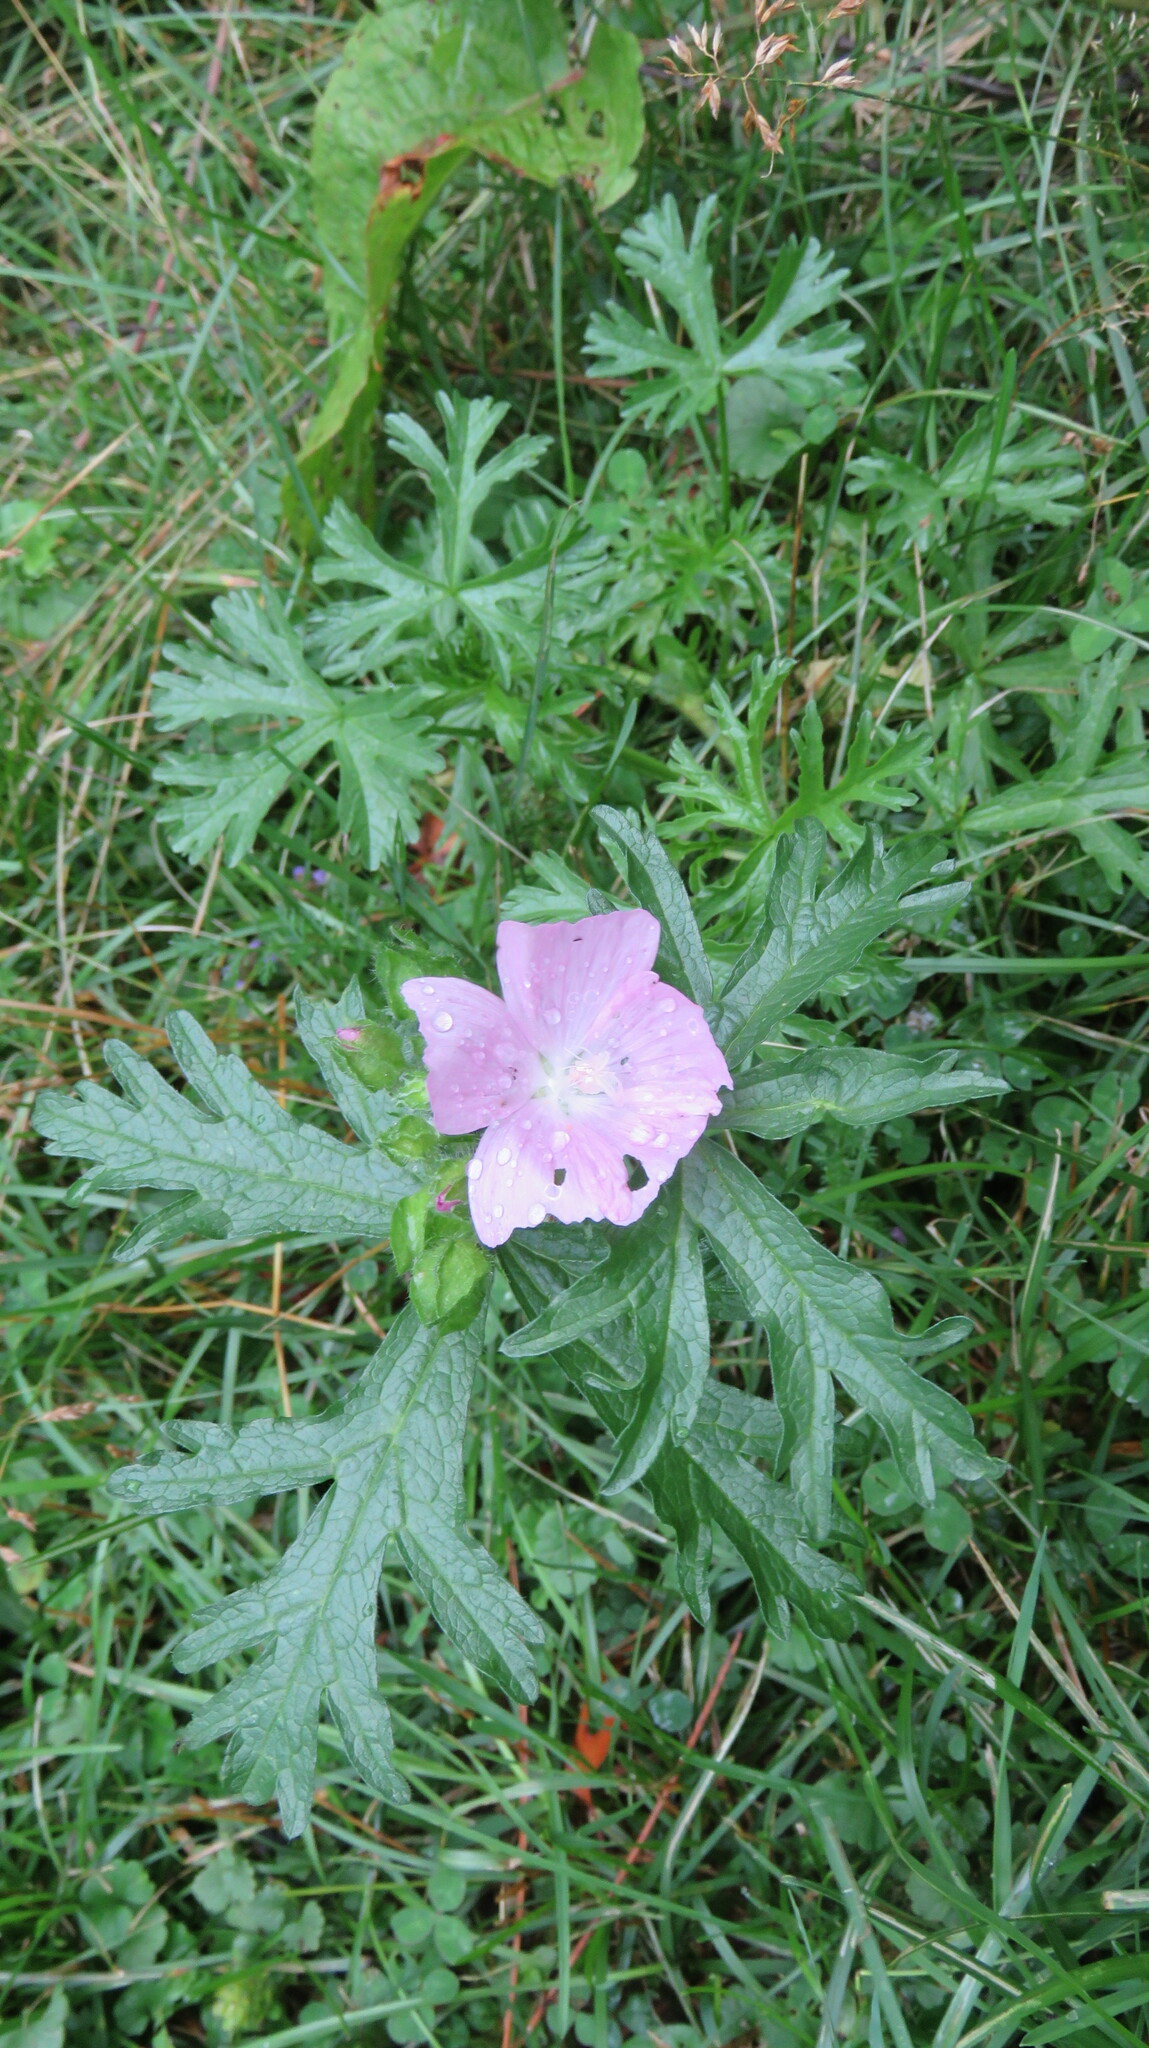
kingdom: Plantae
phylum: Tracheophyta
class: Magnoliopsida
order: Malvales
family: Malvaceae
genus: Malva
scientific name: Malva moschata
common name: Musk mallow
